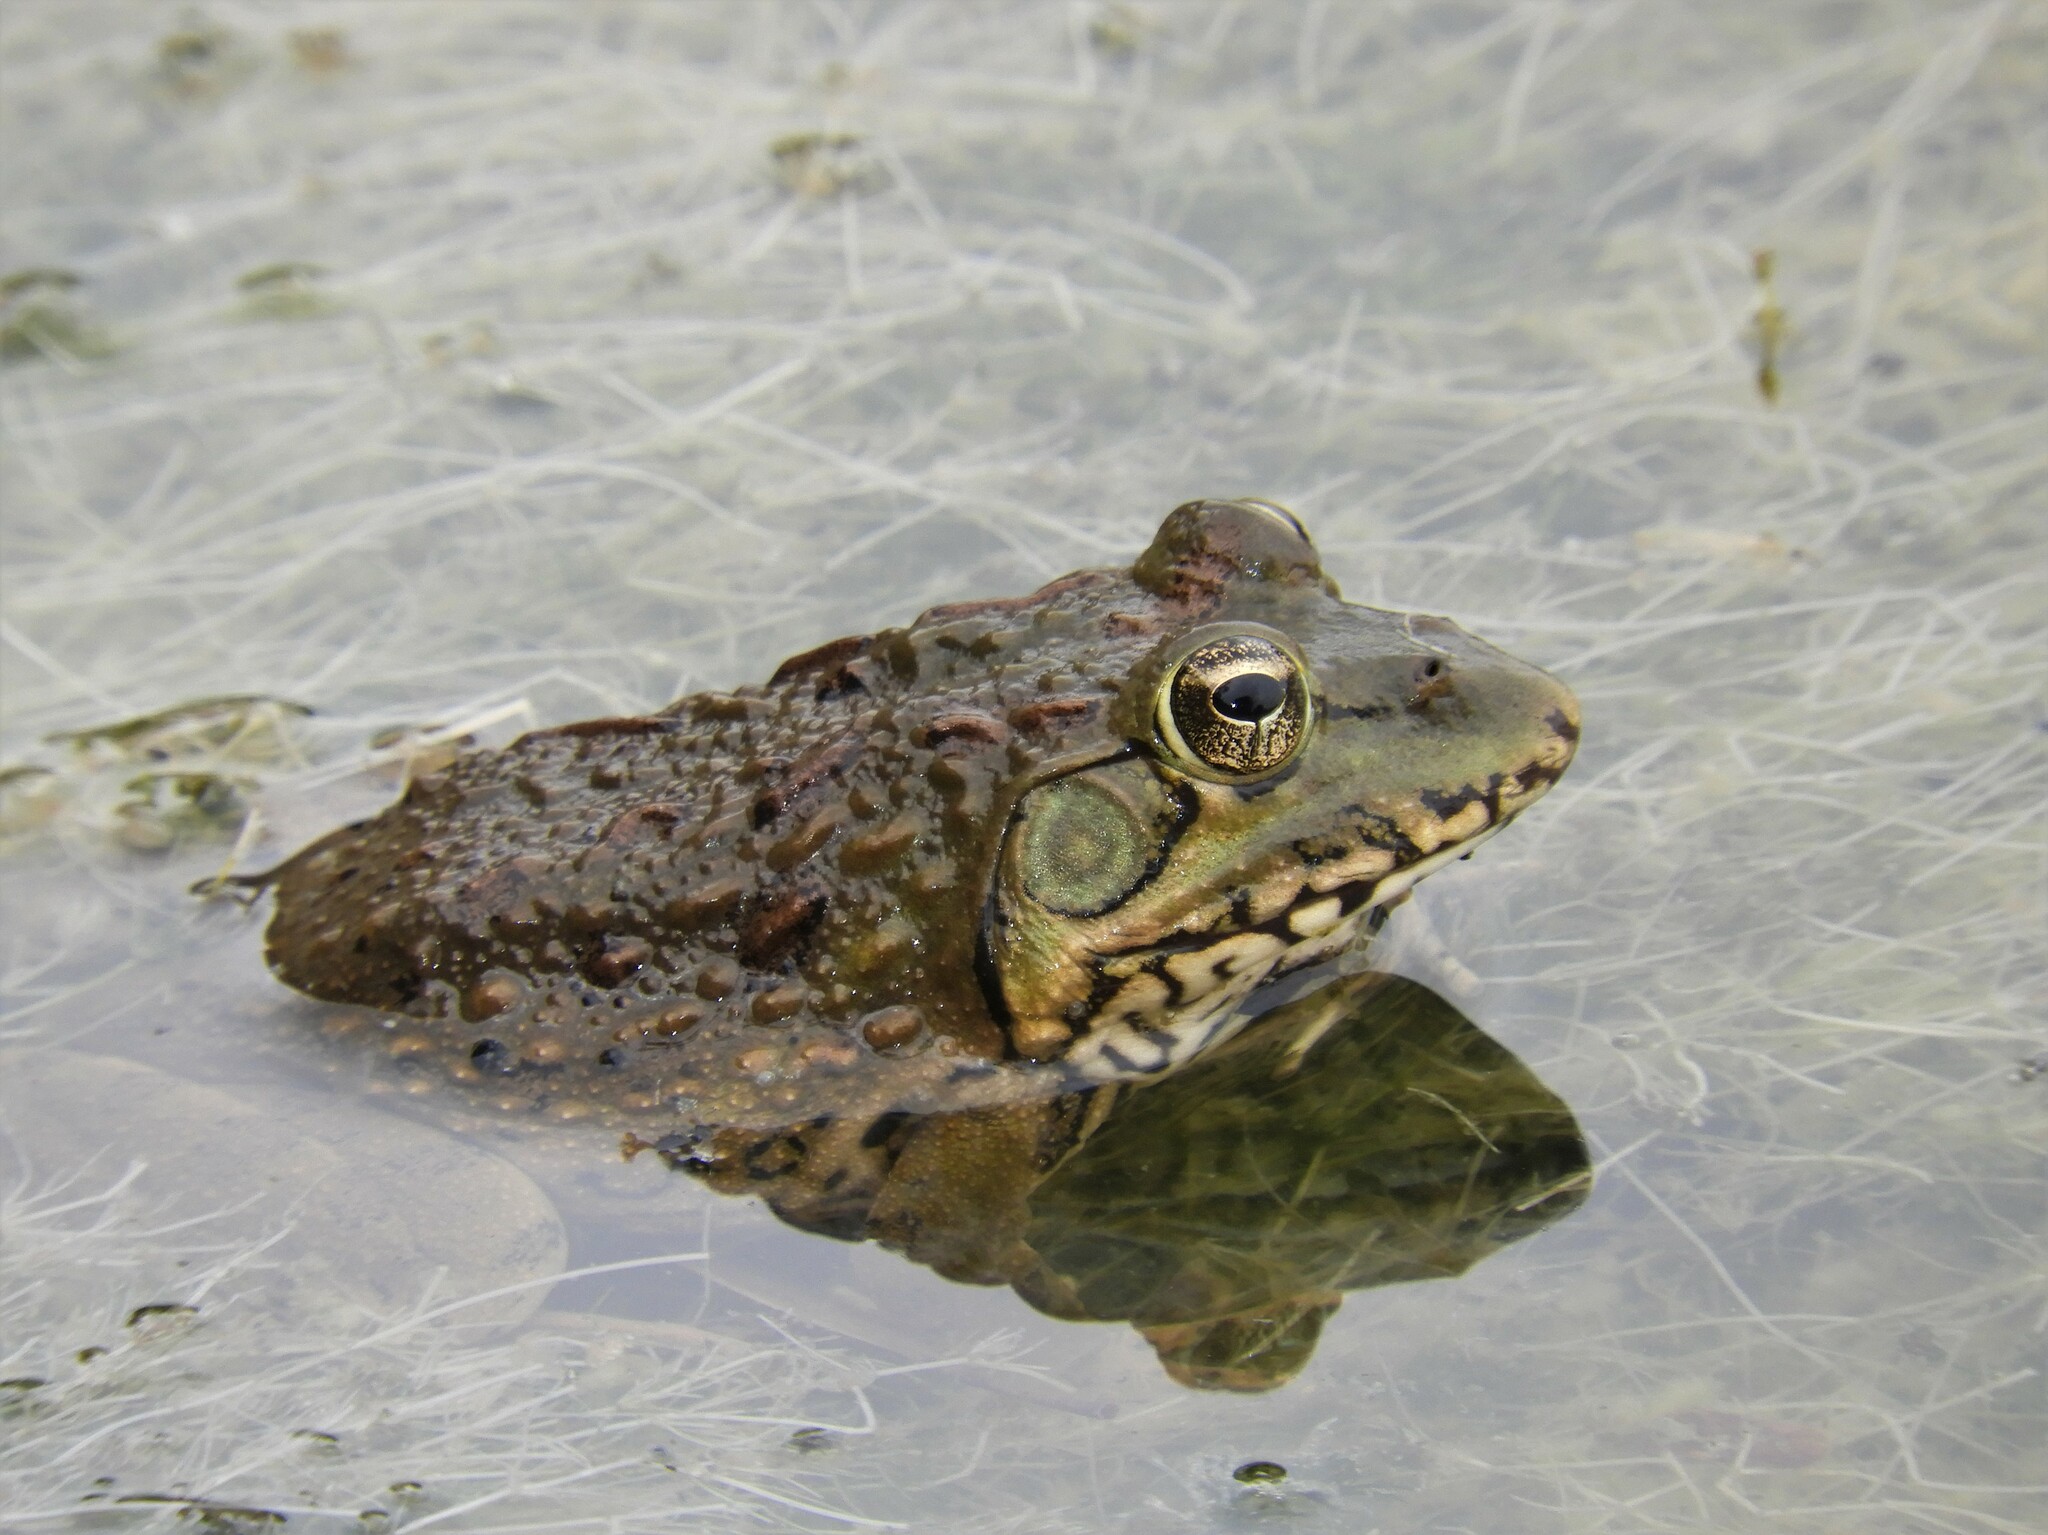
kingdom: Animalia
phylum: Chordata
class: Amphibia
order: Anura
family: Pyxicephalidae
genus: Amietia
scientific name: Amietia poyntoni
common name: Poynton's river frog
